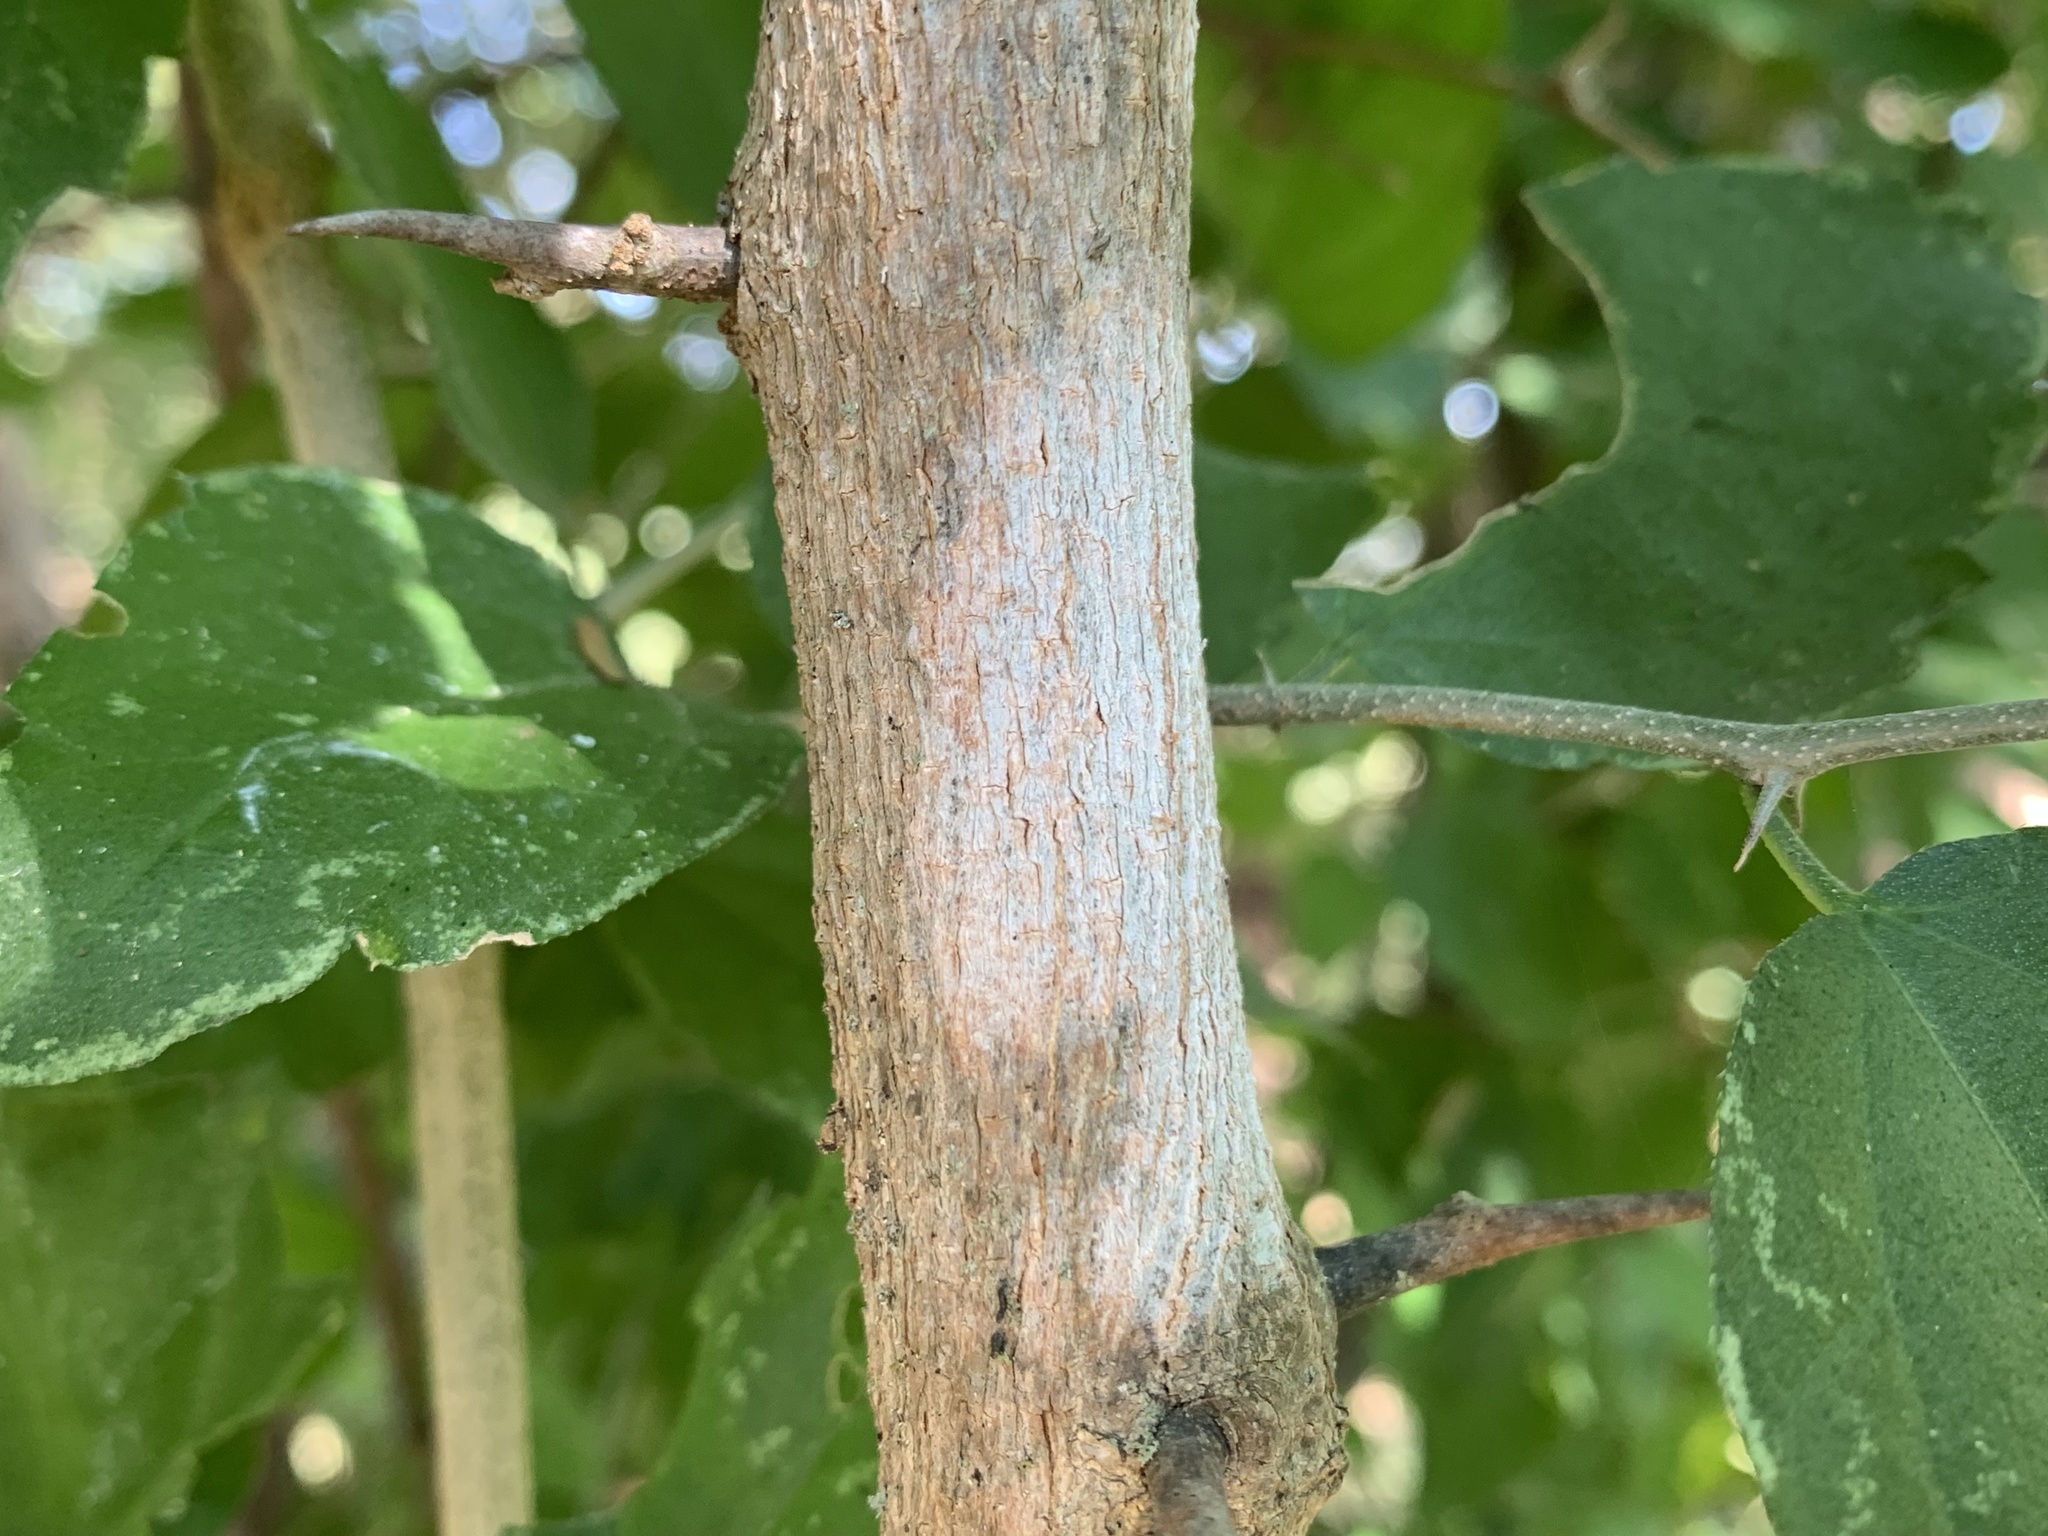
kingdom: Plantae
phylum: Tracheophyta
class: Magnoliopsida
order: Rosales
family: Cannabaceae
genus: Celtis
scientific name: Celtis pallida
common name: Desert hackberry
